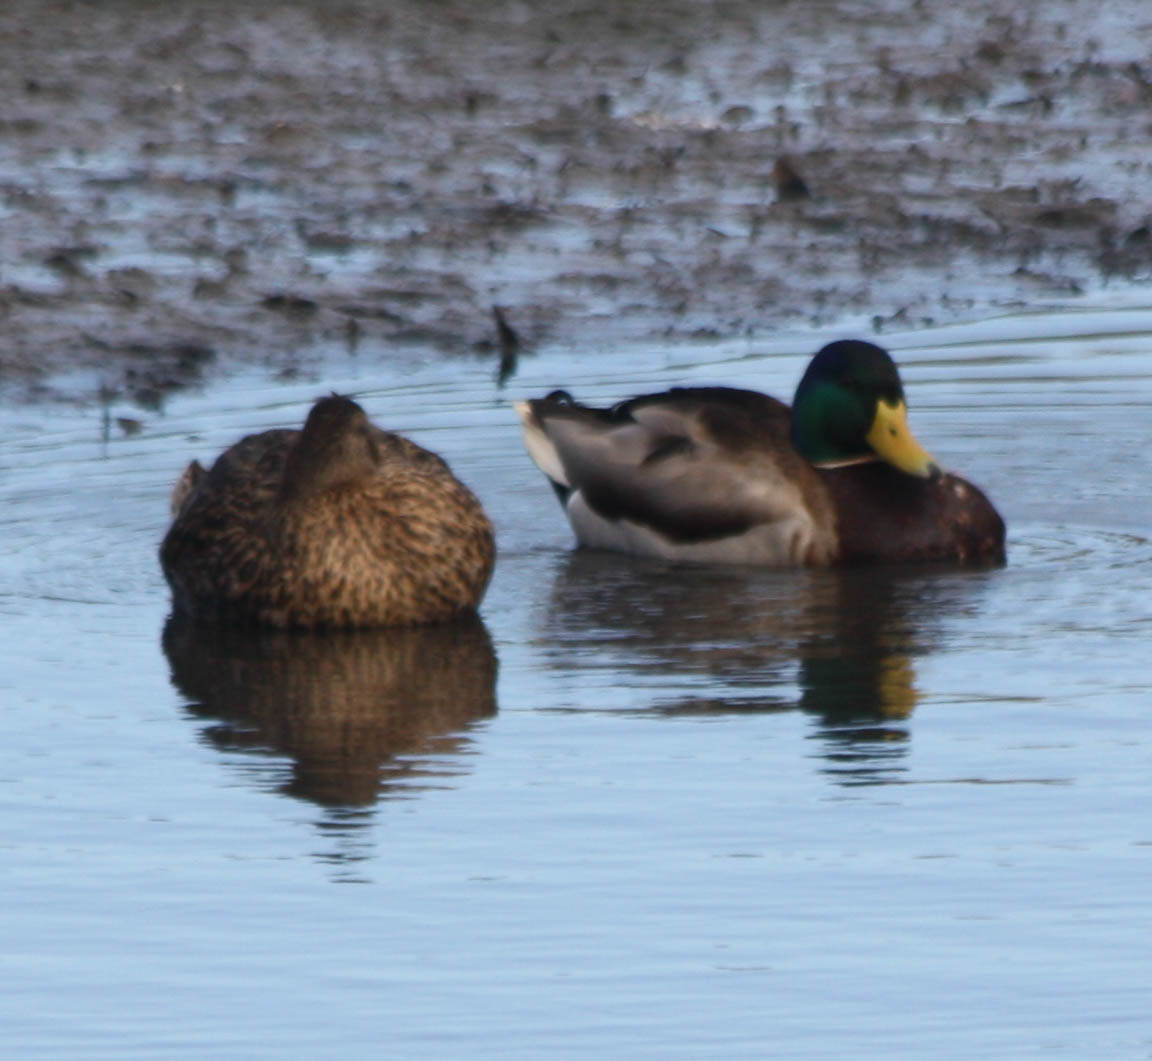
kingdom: Animalia
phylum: Chordata
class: Aves
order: Anseriformes
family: Anatidae
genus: Anas
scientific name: Anas platyrhynchos
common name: Mallard
